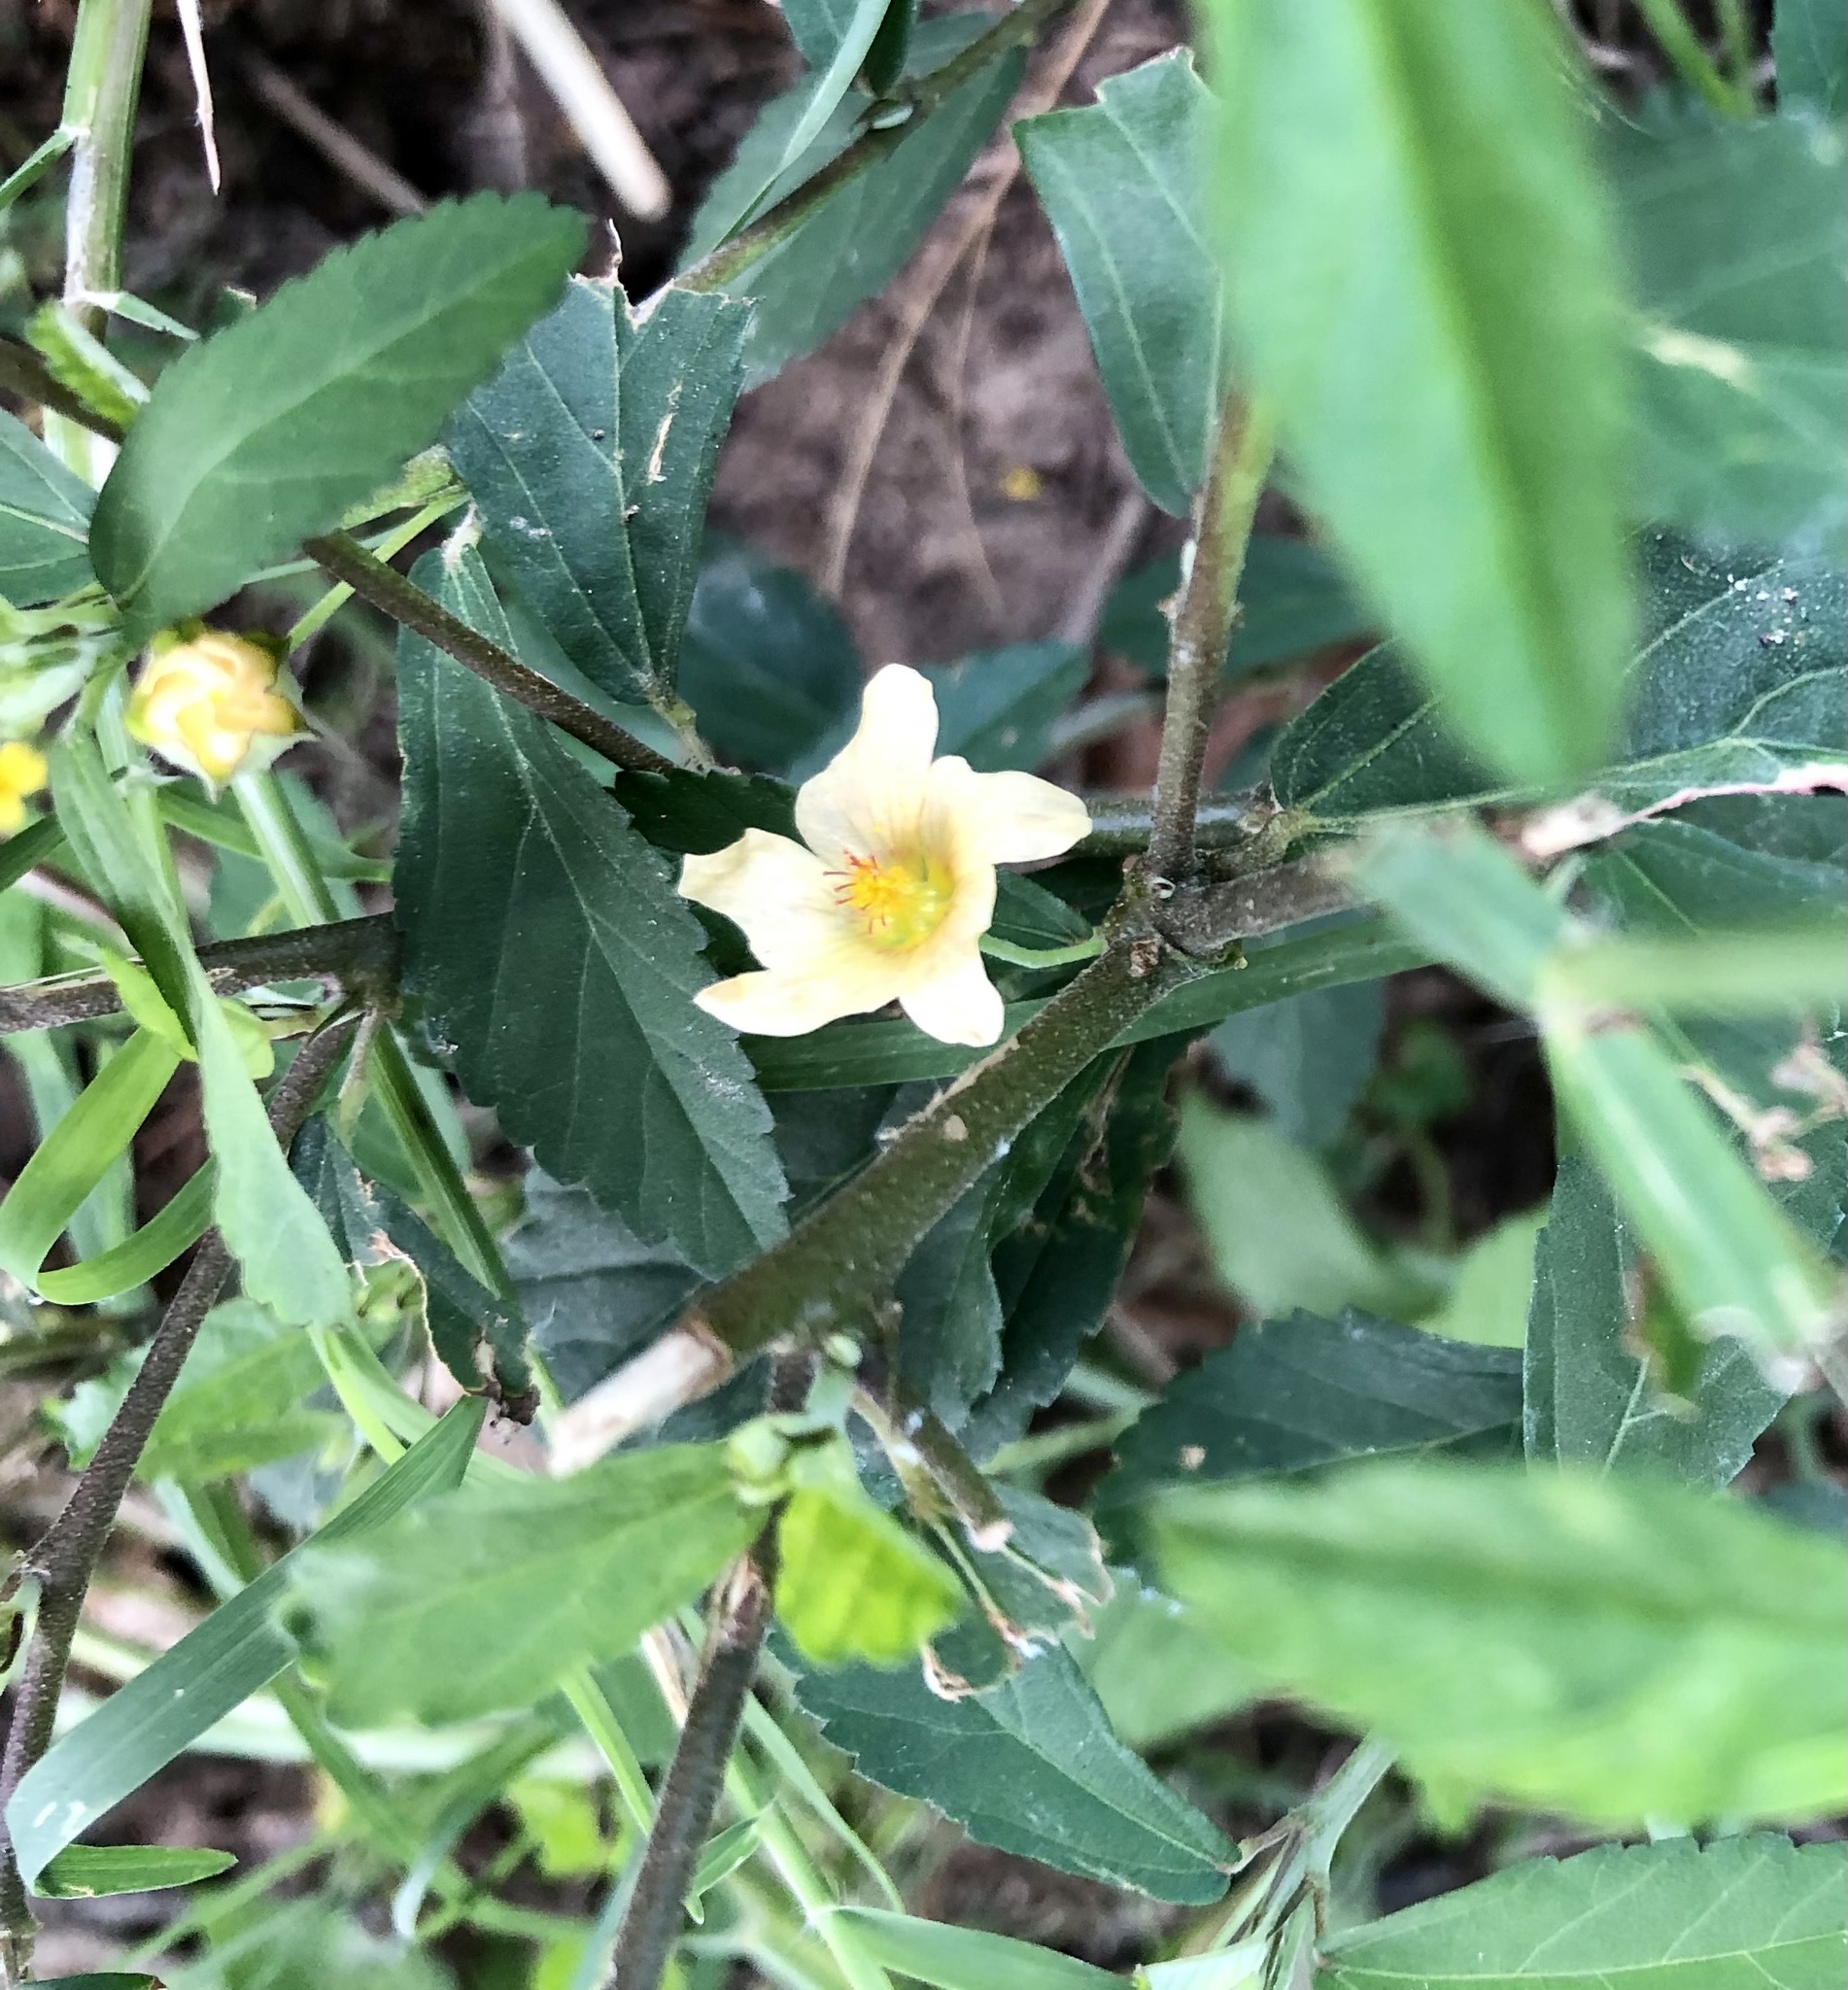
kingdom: Plantae
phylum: Tracheophyta
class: Magnoliopsida
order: Malvales
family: Malvaceae
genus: Sida
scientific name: Sida rhombifolia
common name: Queensland-hemp
